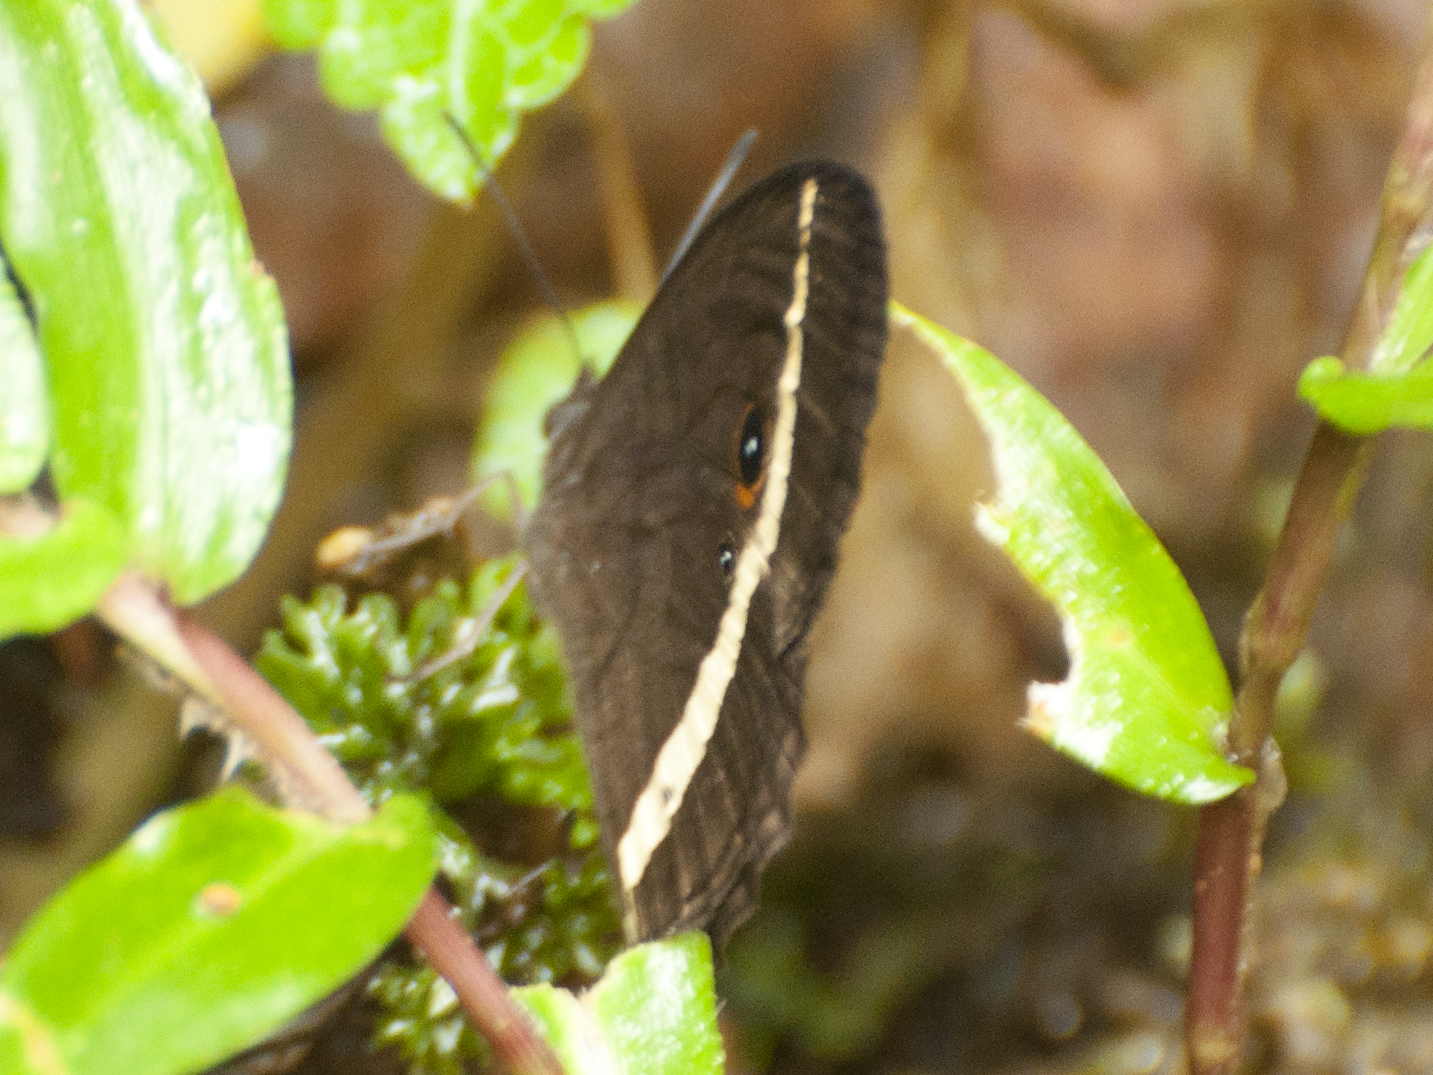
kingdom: Animalia
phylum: Arthropoda
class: Insecta
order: Lepidoptera
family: Nymphalidae
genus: Heteropsis
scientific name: Heteropsis vola
